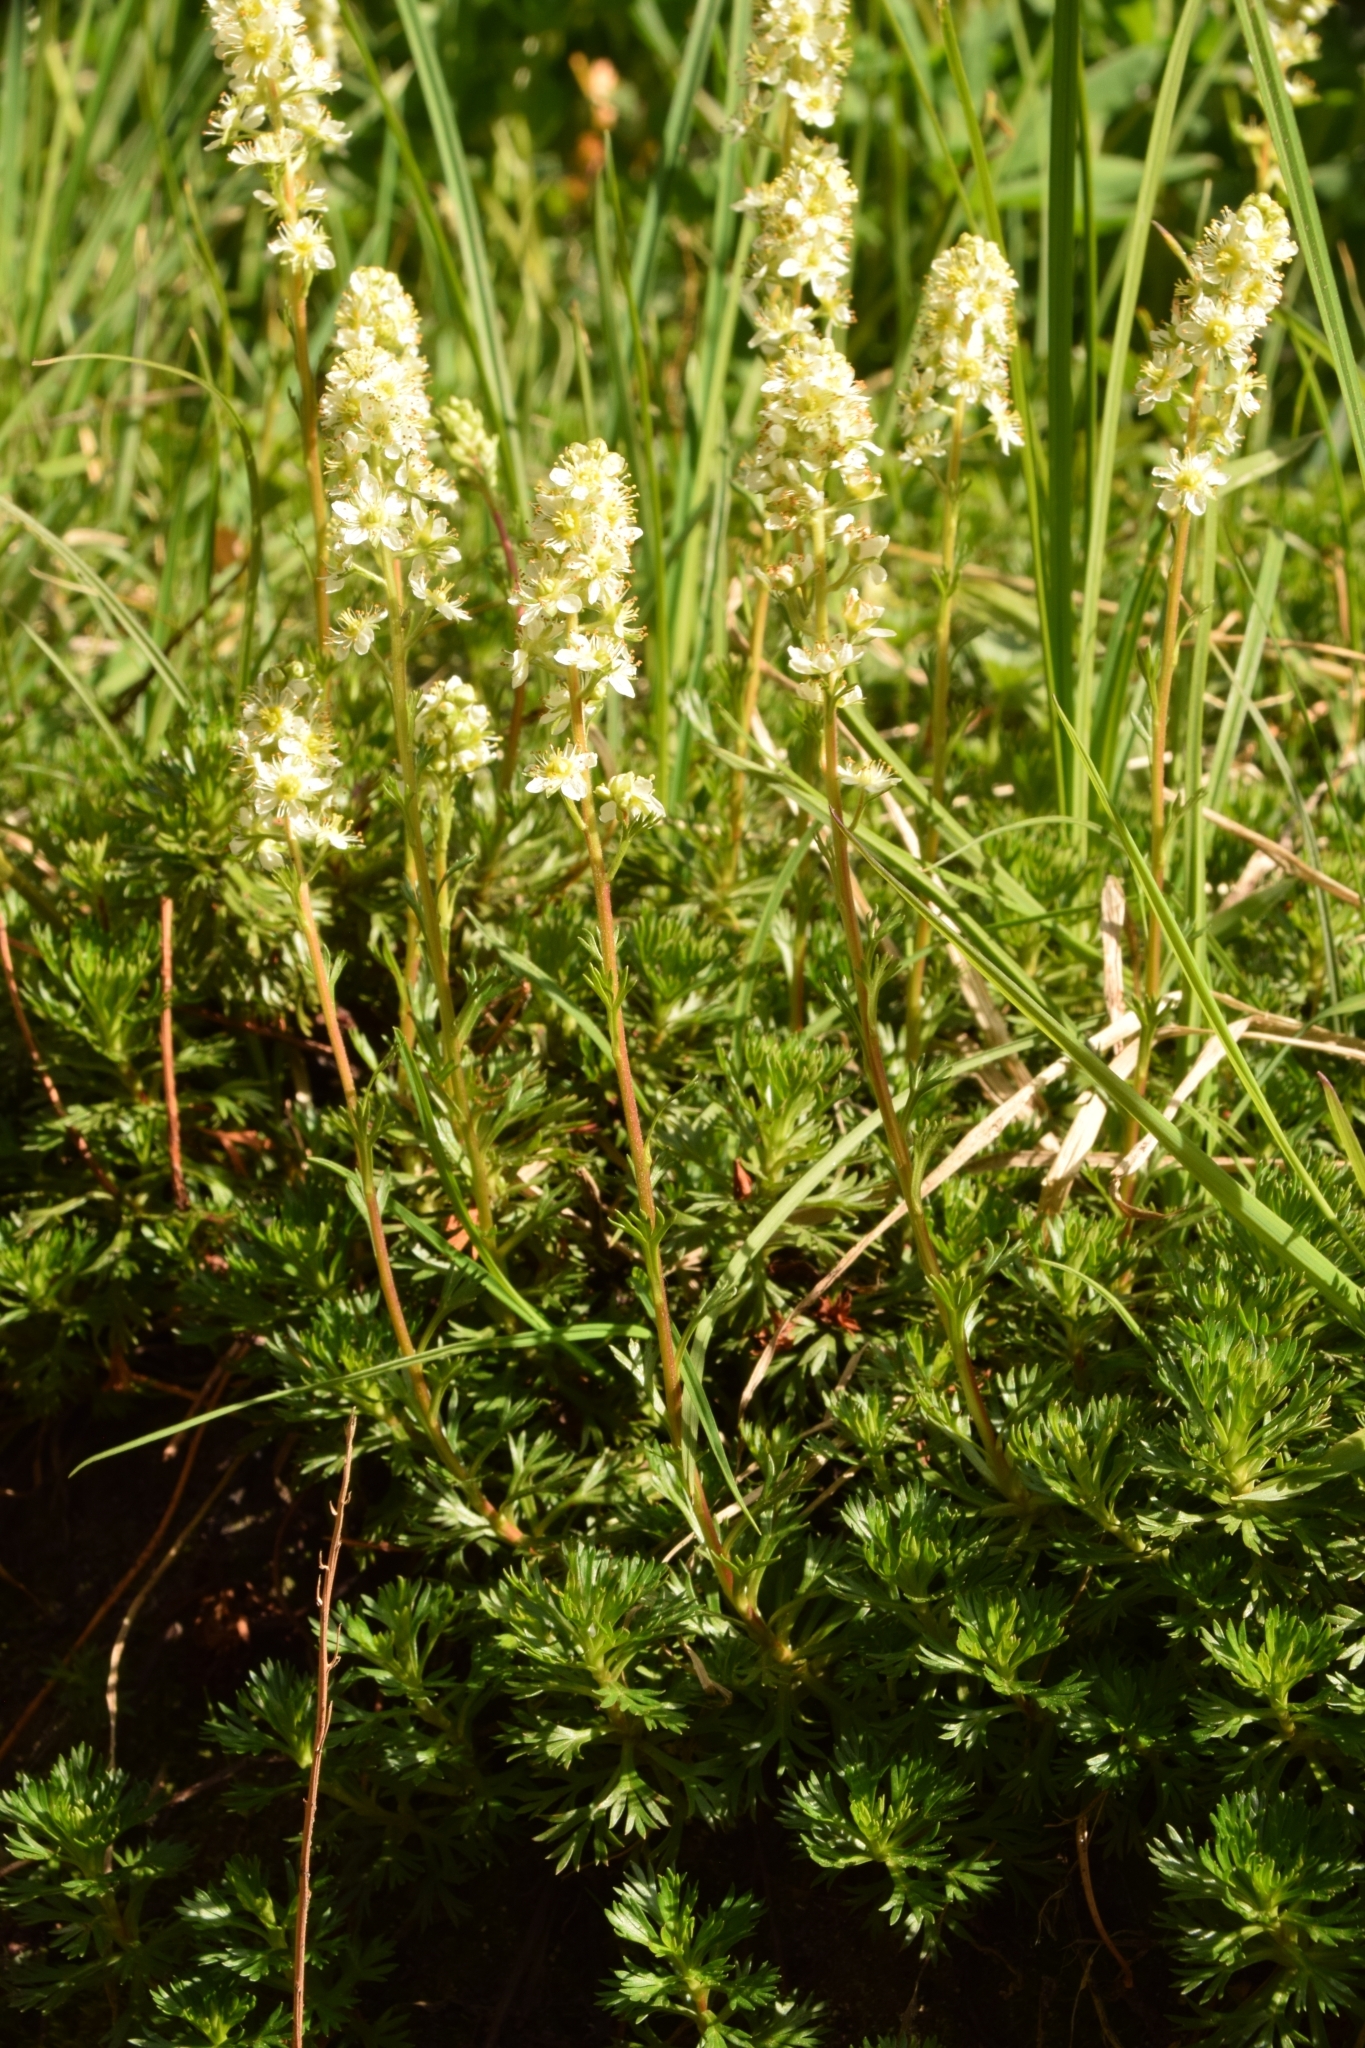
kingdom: Plantae
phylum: Tracheophyta
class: Magnoliopsida
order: Rosales
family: Rosaceae
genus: Luetkea
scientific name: Luetkea pectinata
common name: Partridgefoot
